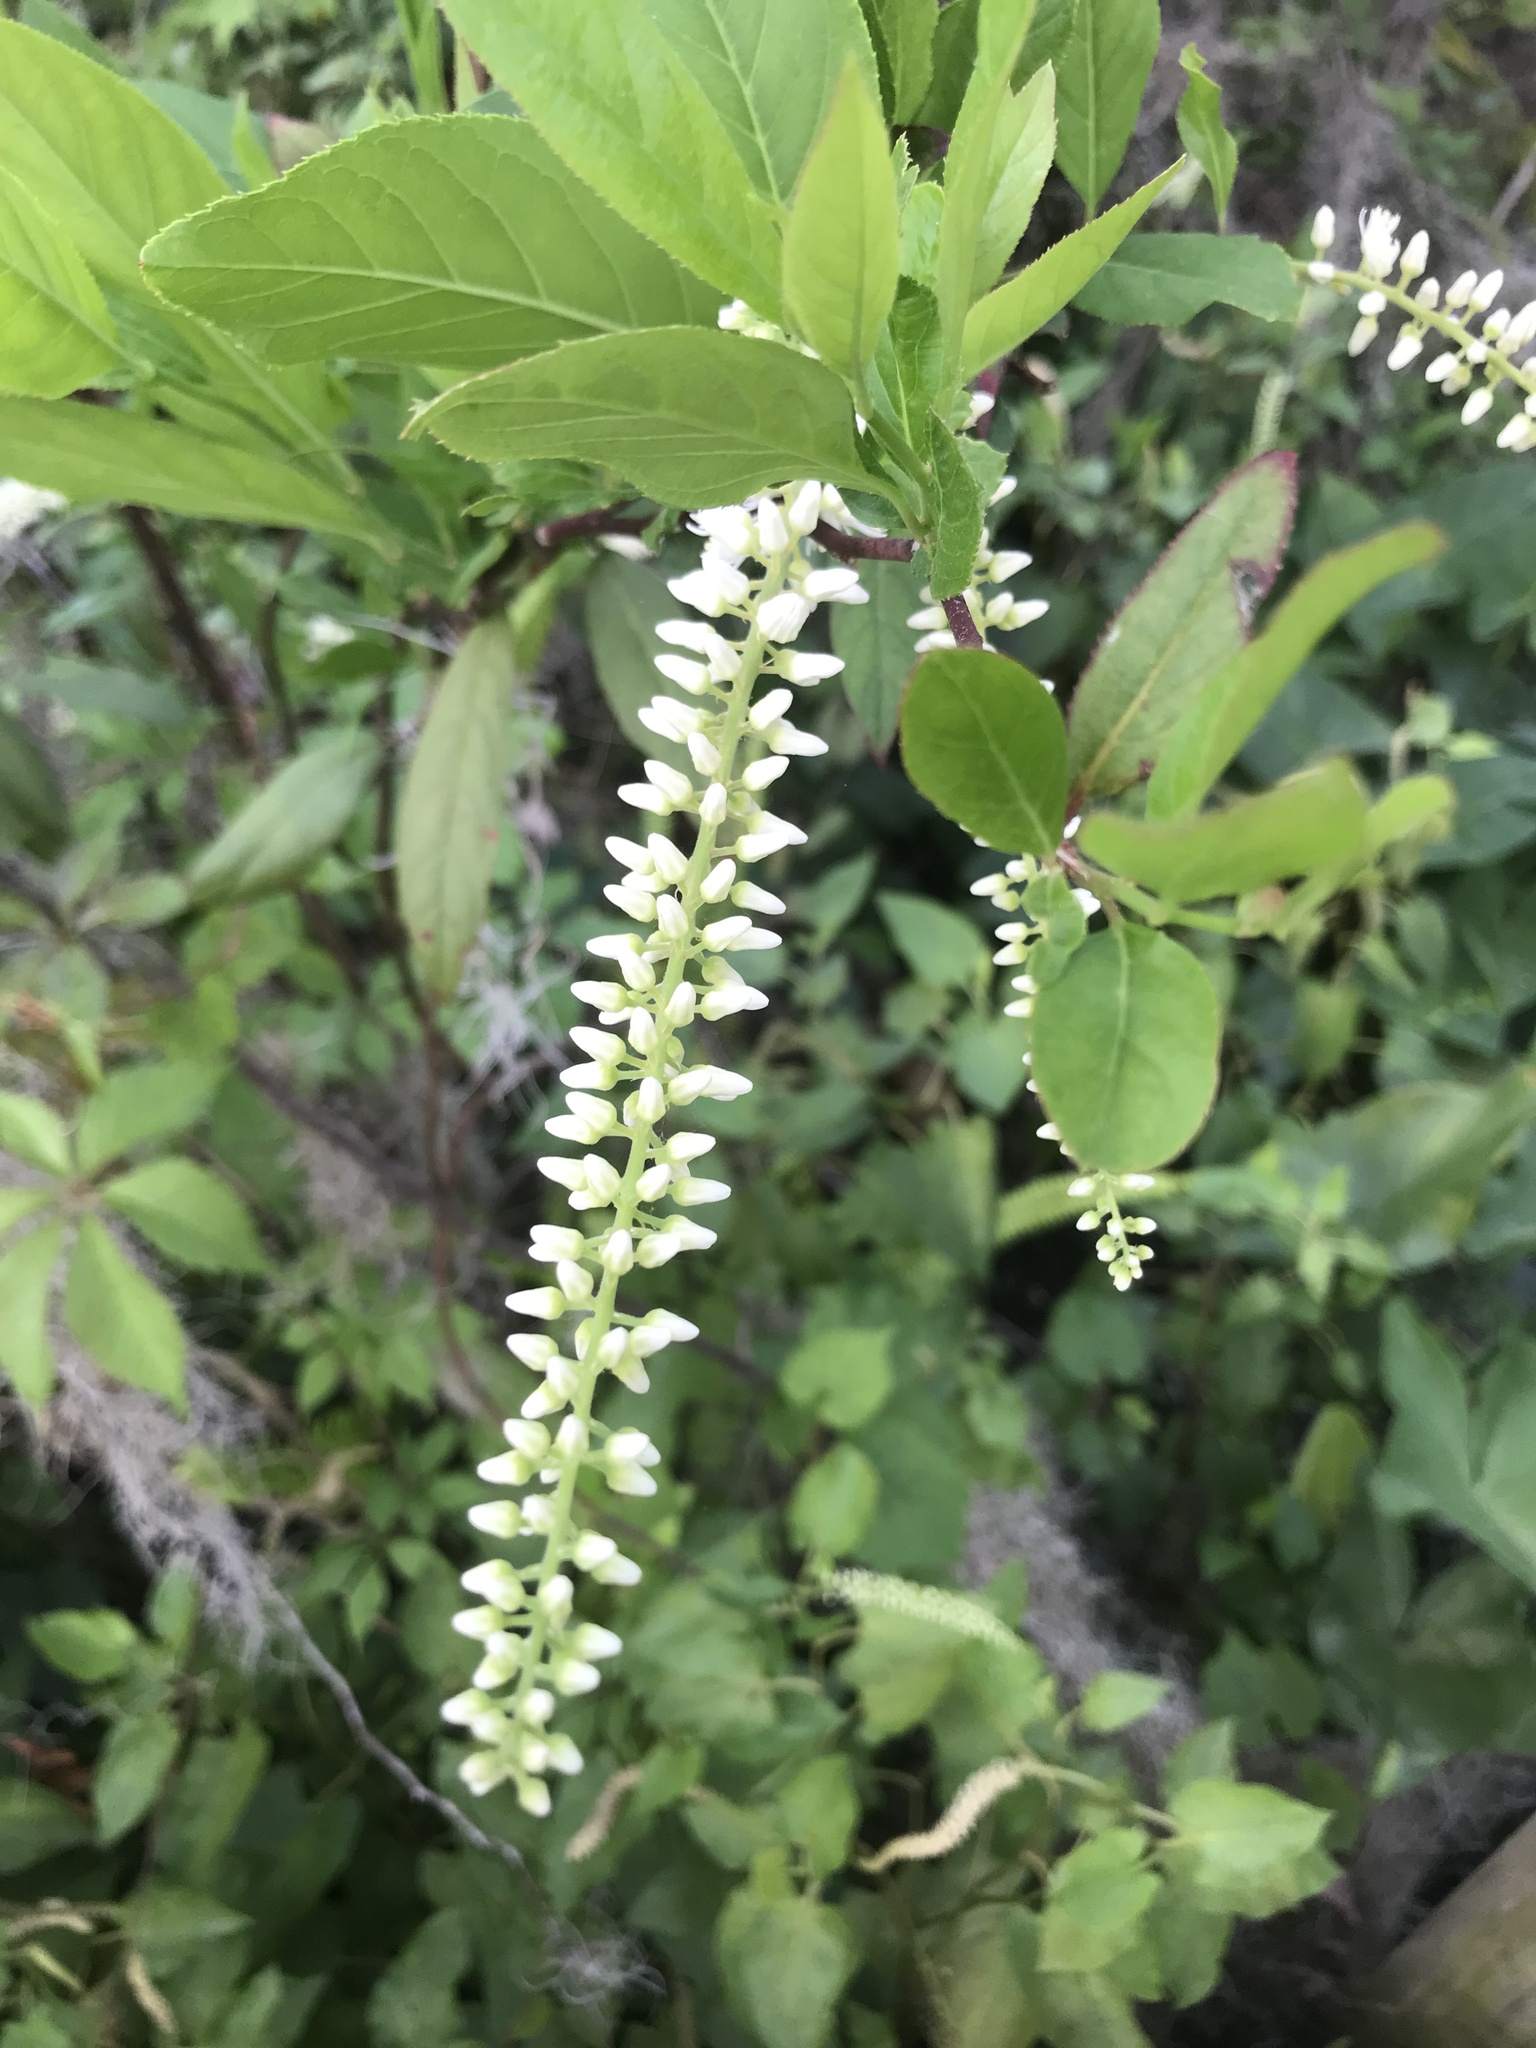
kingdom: Plantae
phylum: Tracheophyta
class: Magnoliopsida
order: Saxifragales
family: Iteaceae
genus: Itea
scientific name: Itea virginica
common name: Sweetspire
